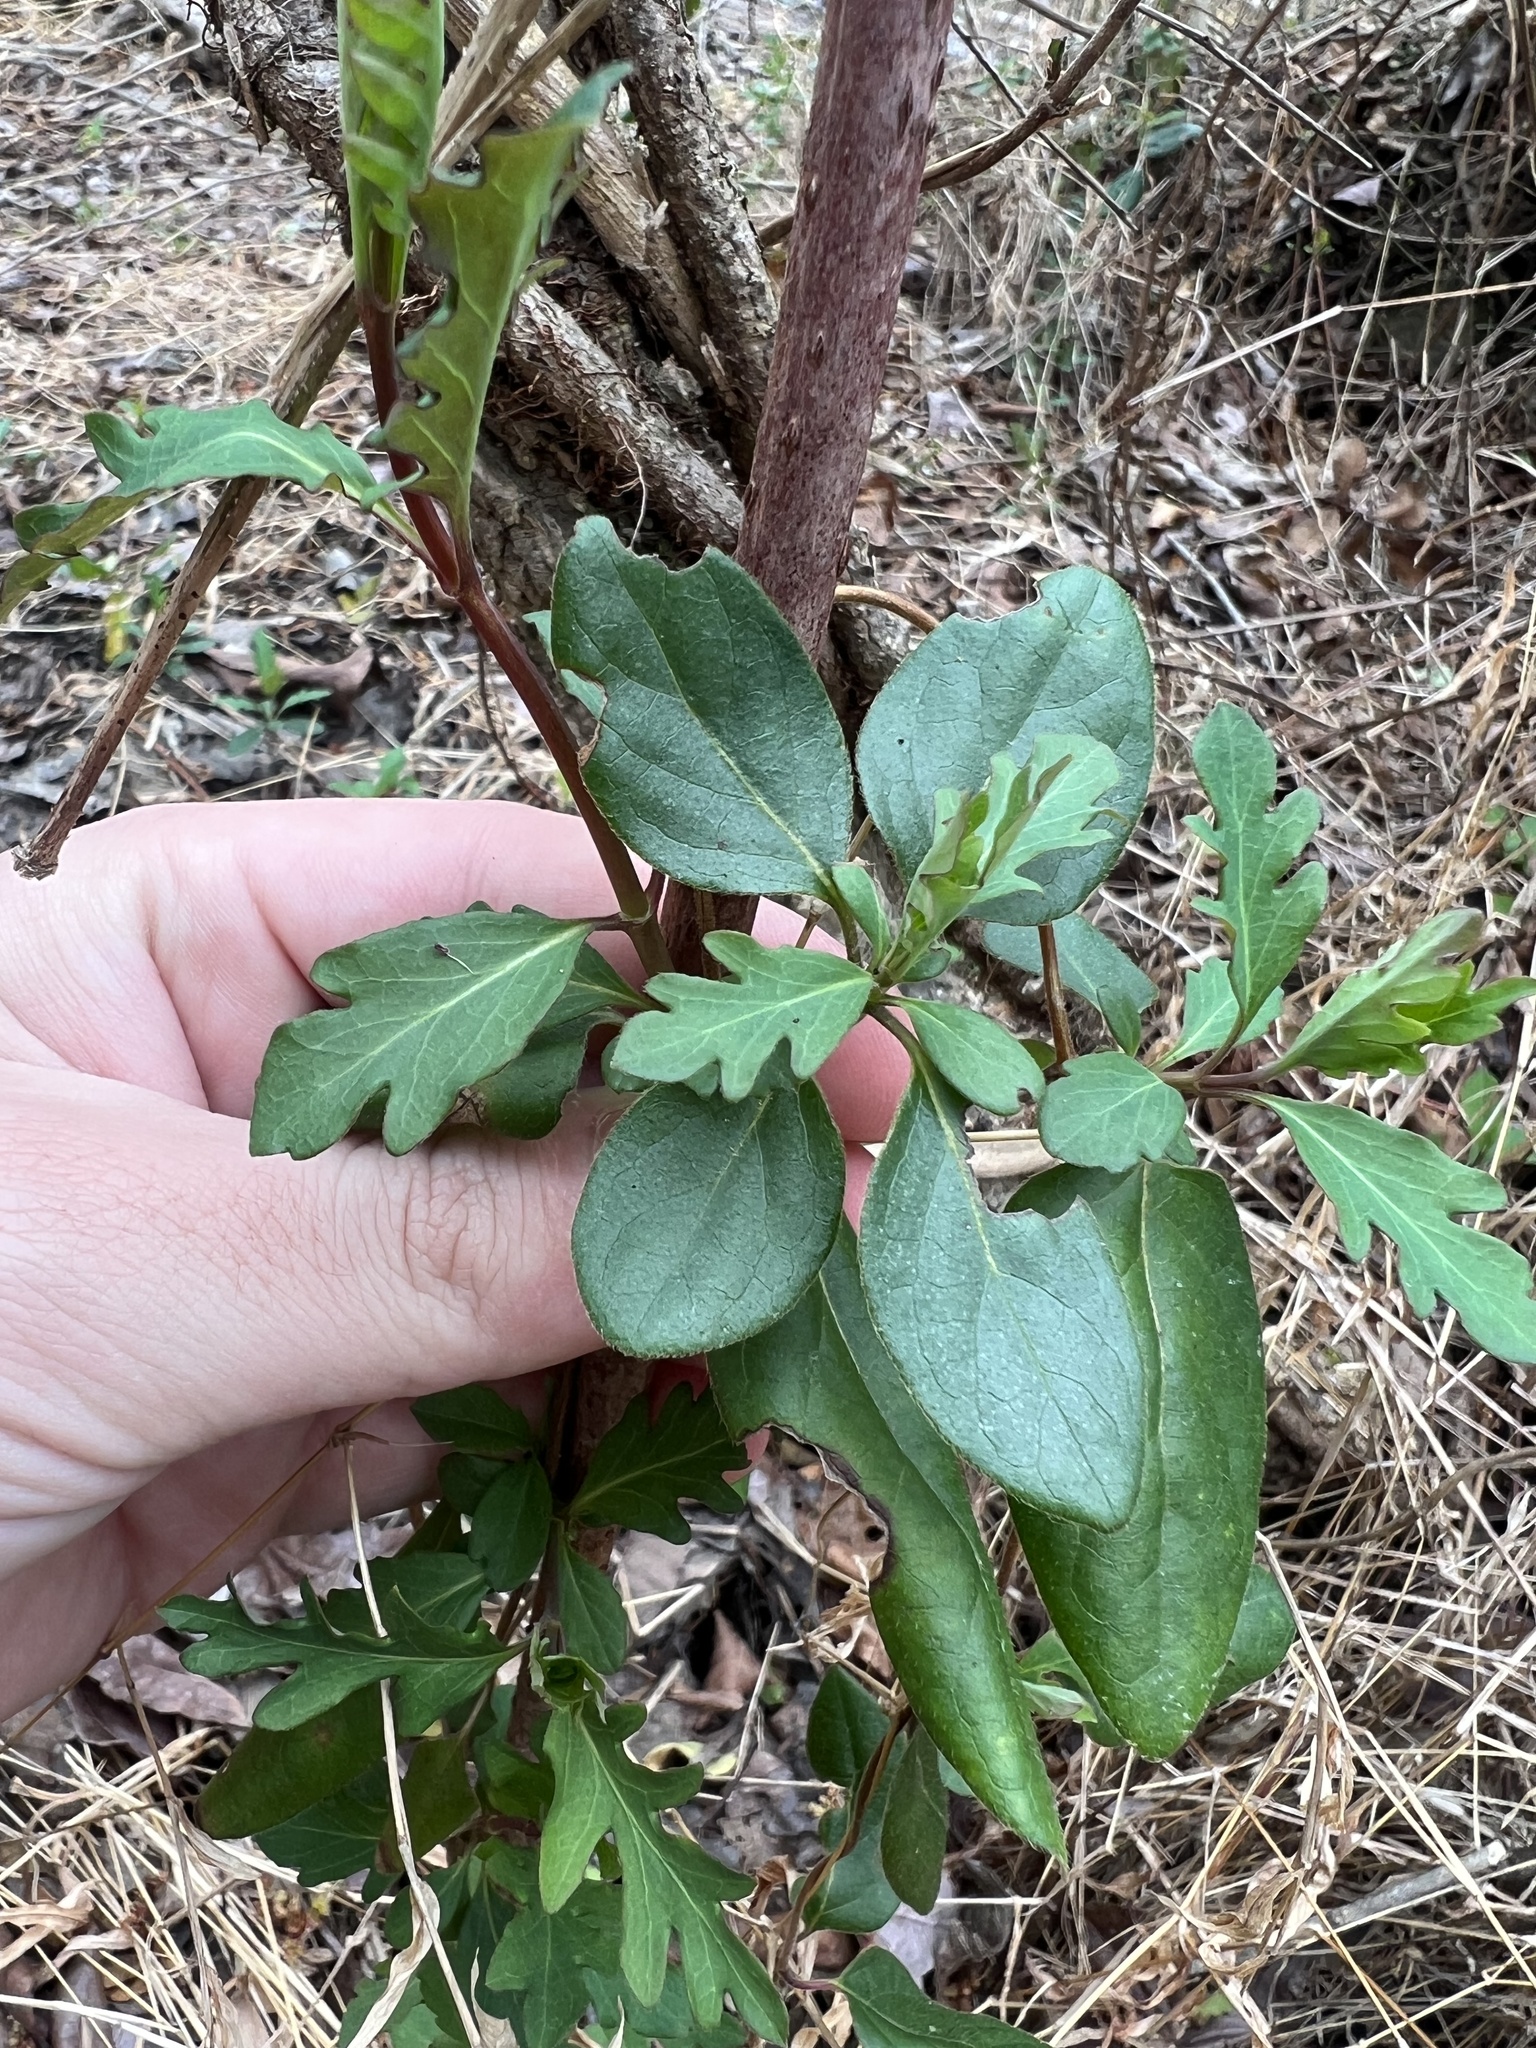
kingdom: Plantae
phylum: Tracheophyta
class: Magnoliopsida
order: Dipsacales
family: Caprifoliaceae
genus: Lonicera
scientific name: Lonicera japonica
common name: Japanese honeysuckle
